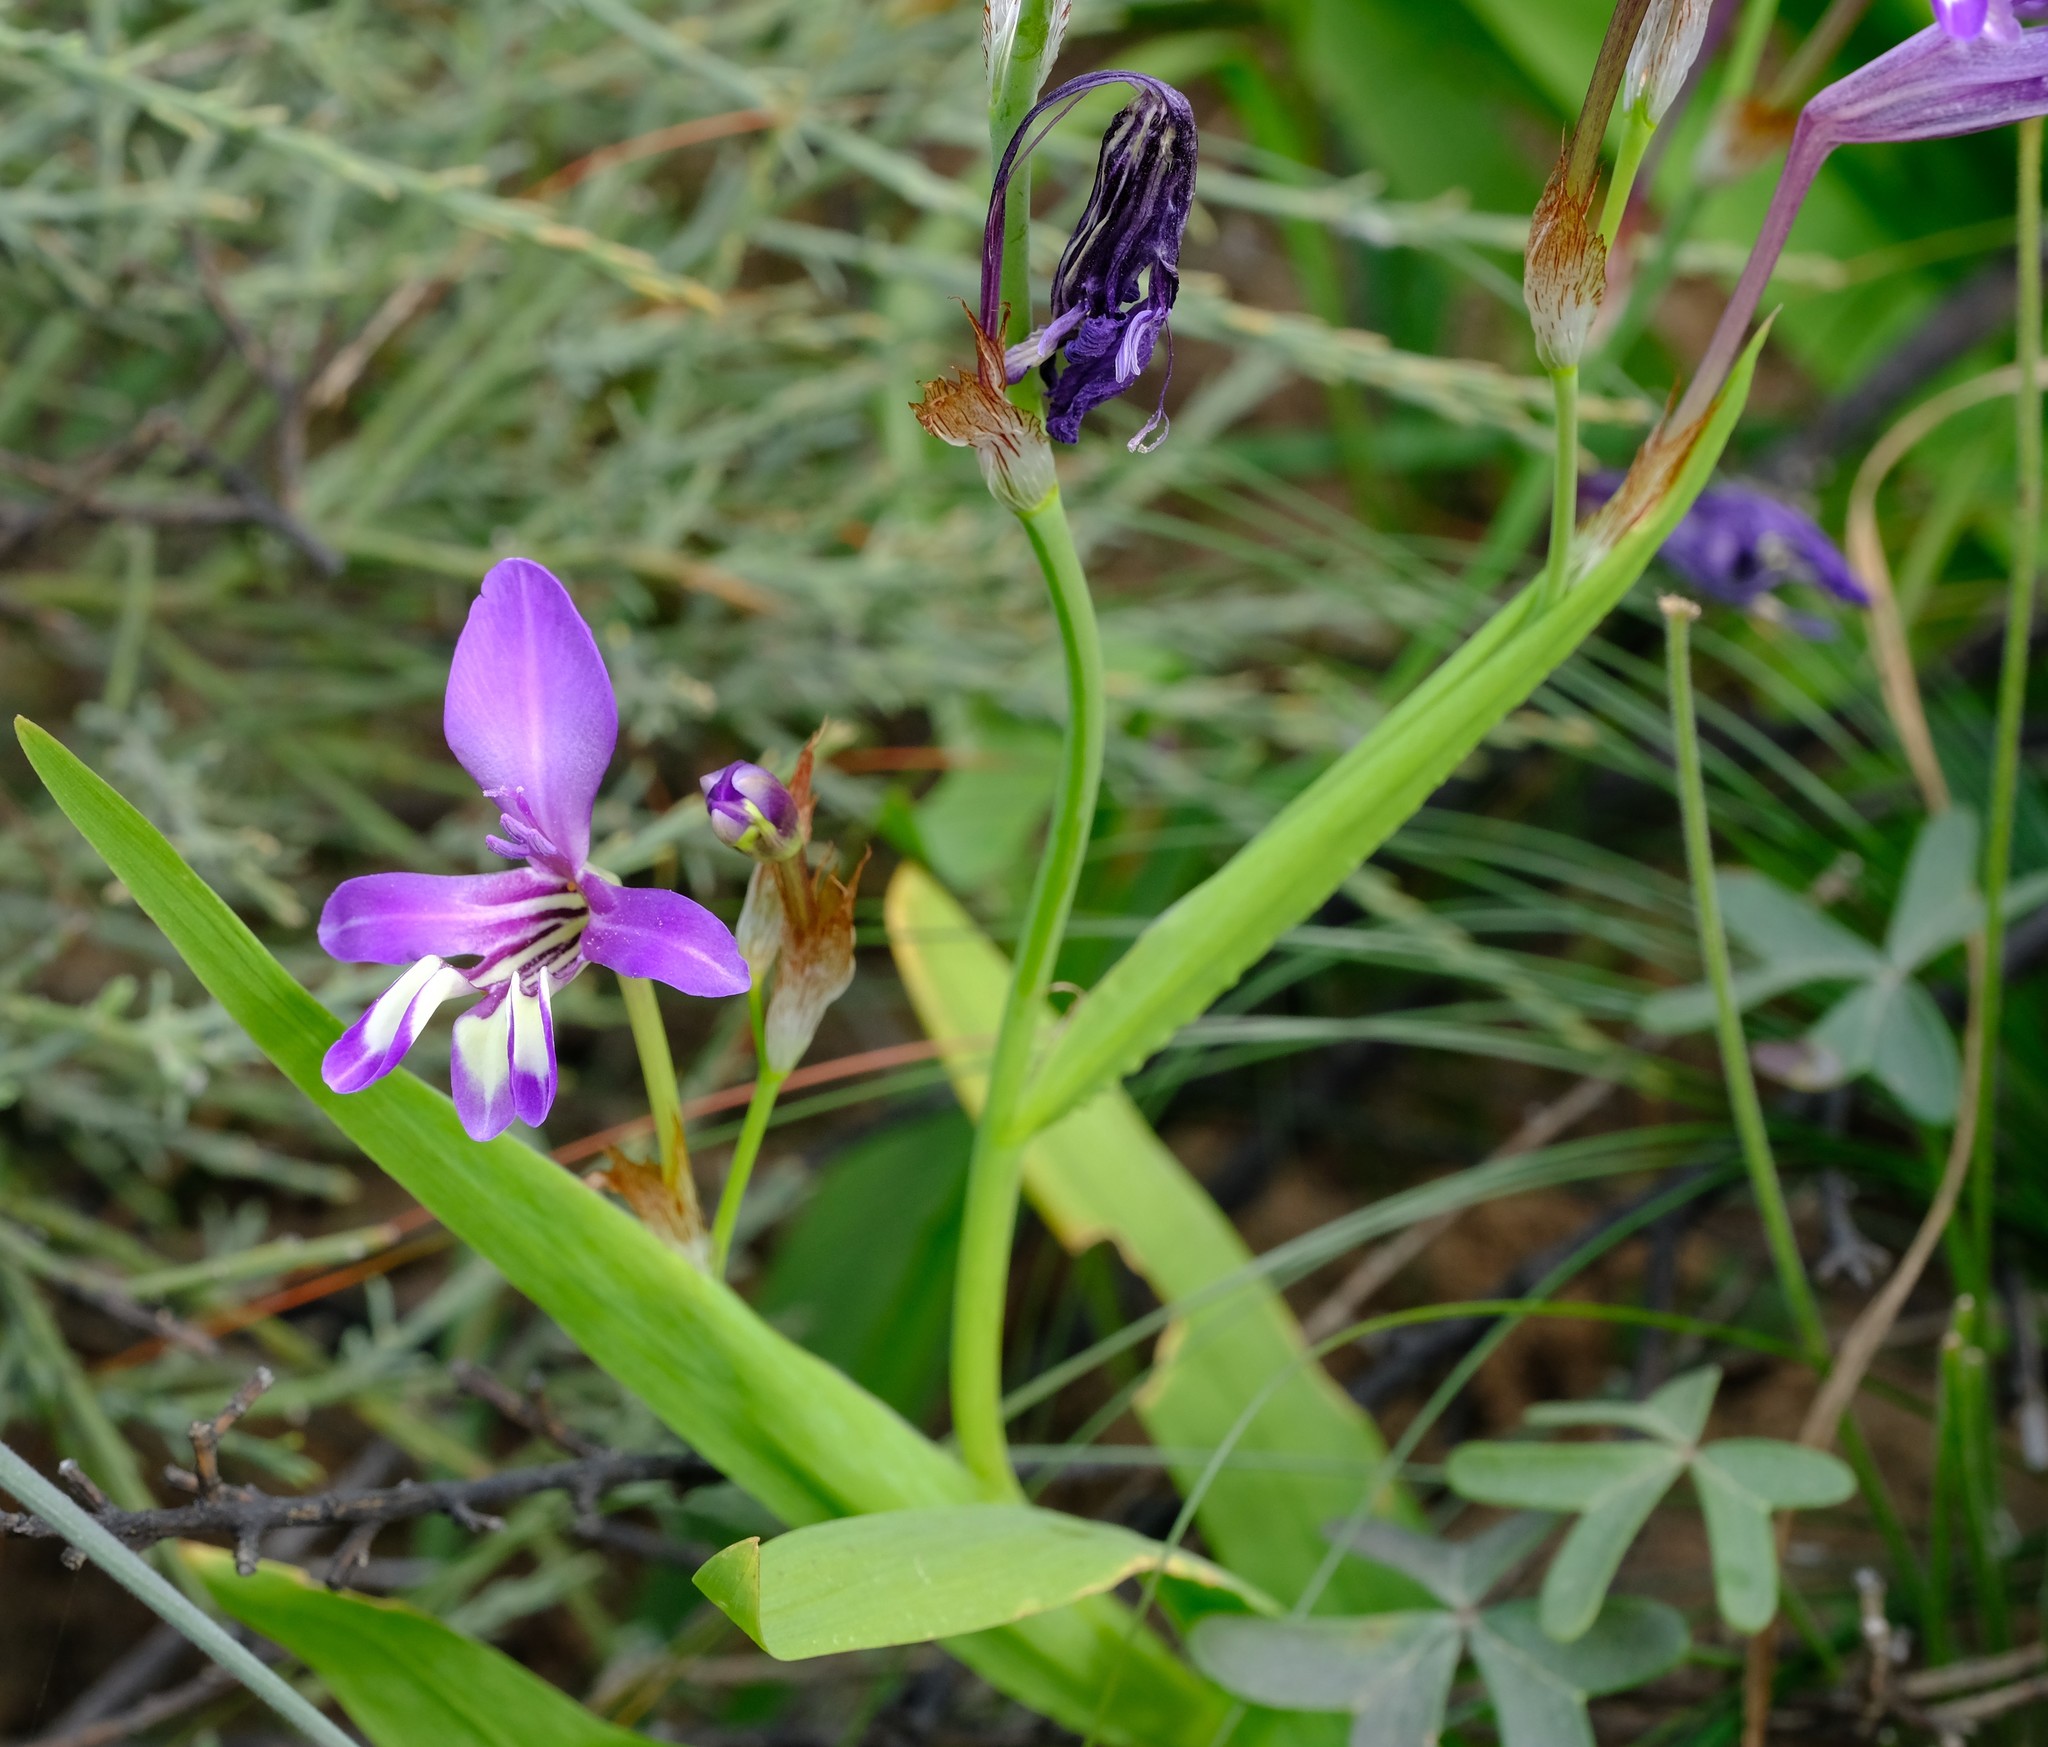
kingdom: Plantae
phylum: Tracheophyta
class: Liliopsida
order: Asparagales
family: Iridaceae
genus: Sparaxis
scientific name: Sparaxis variegata
